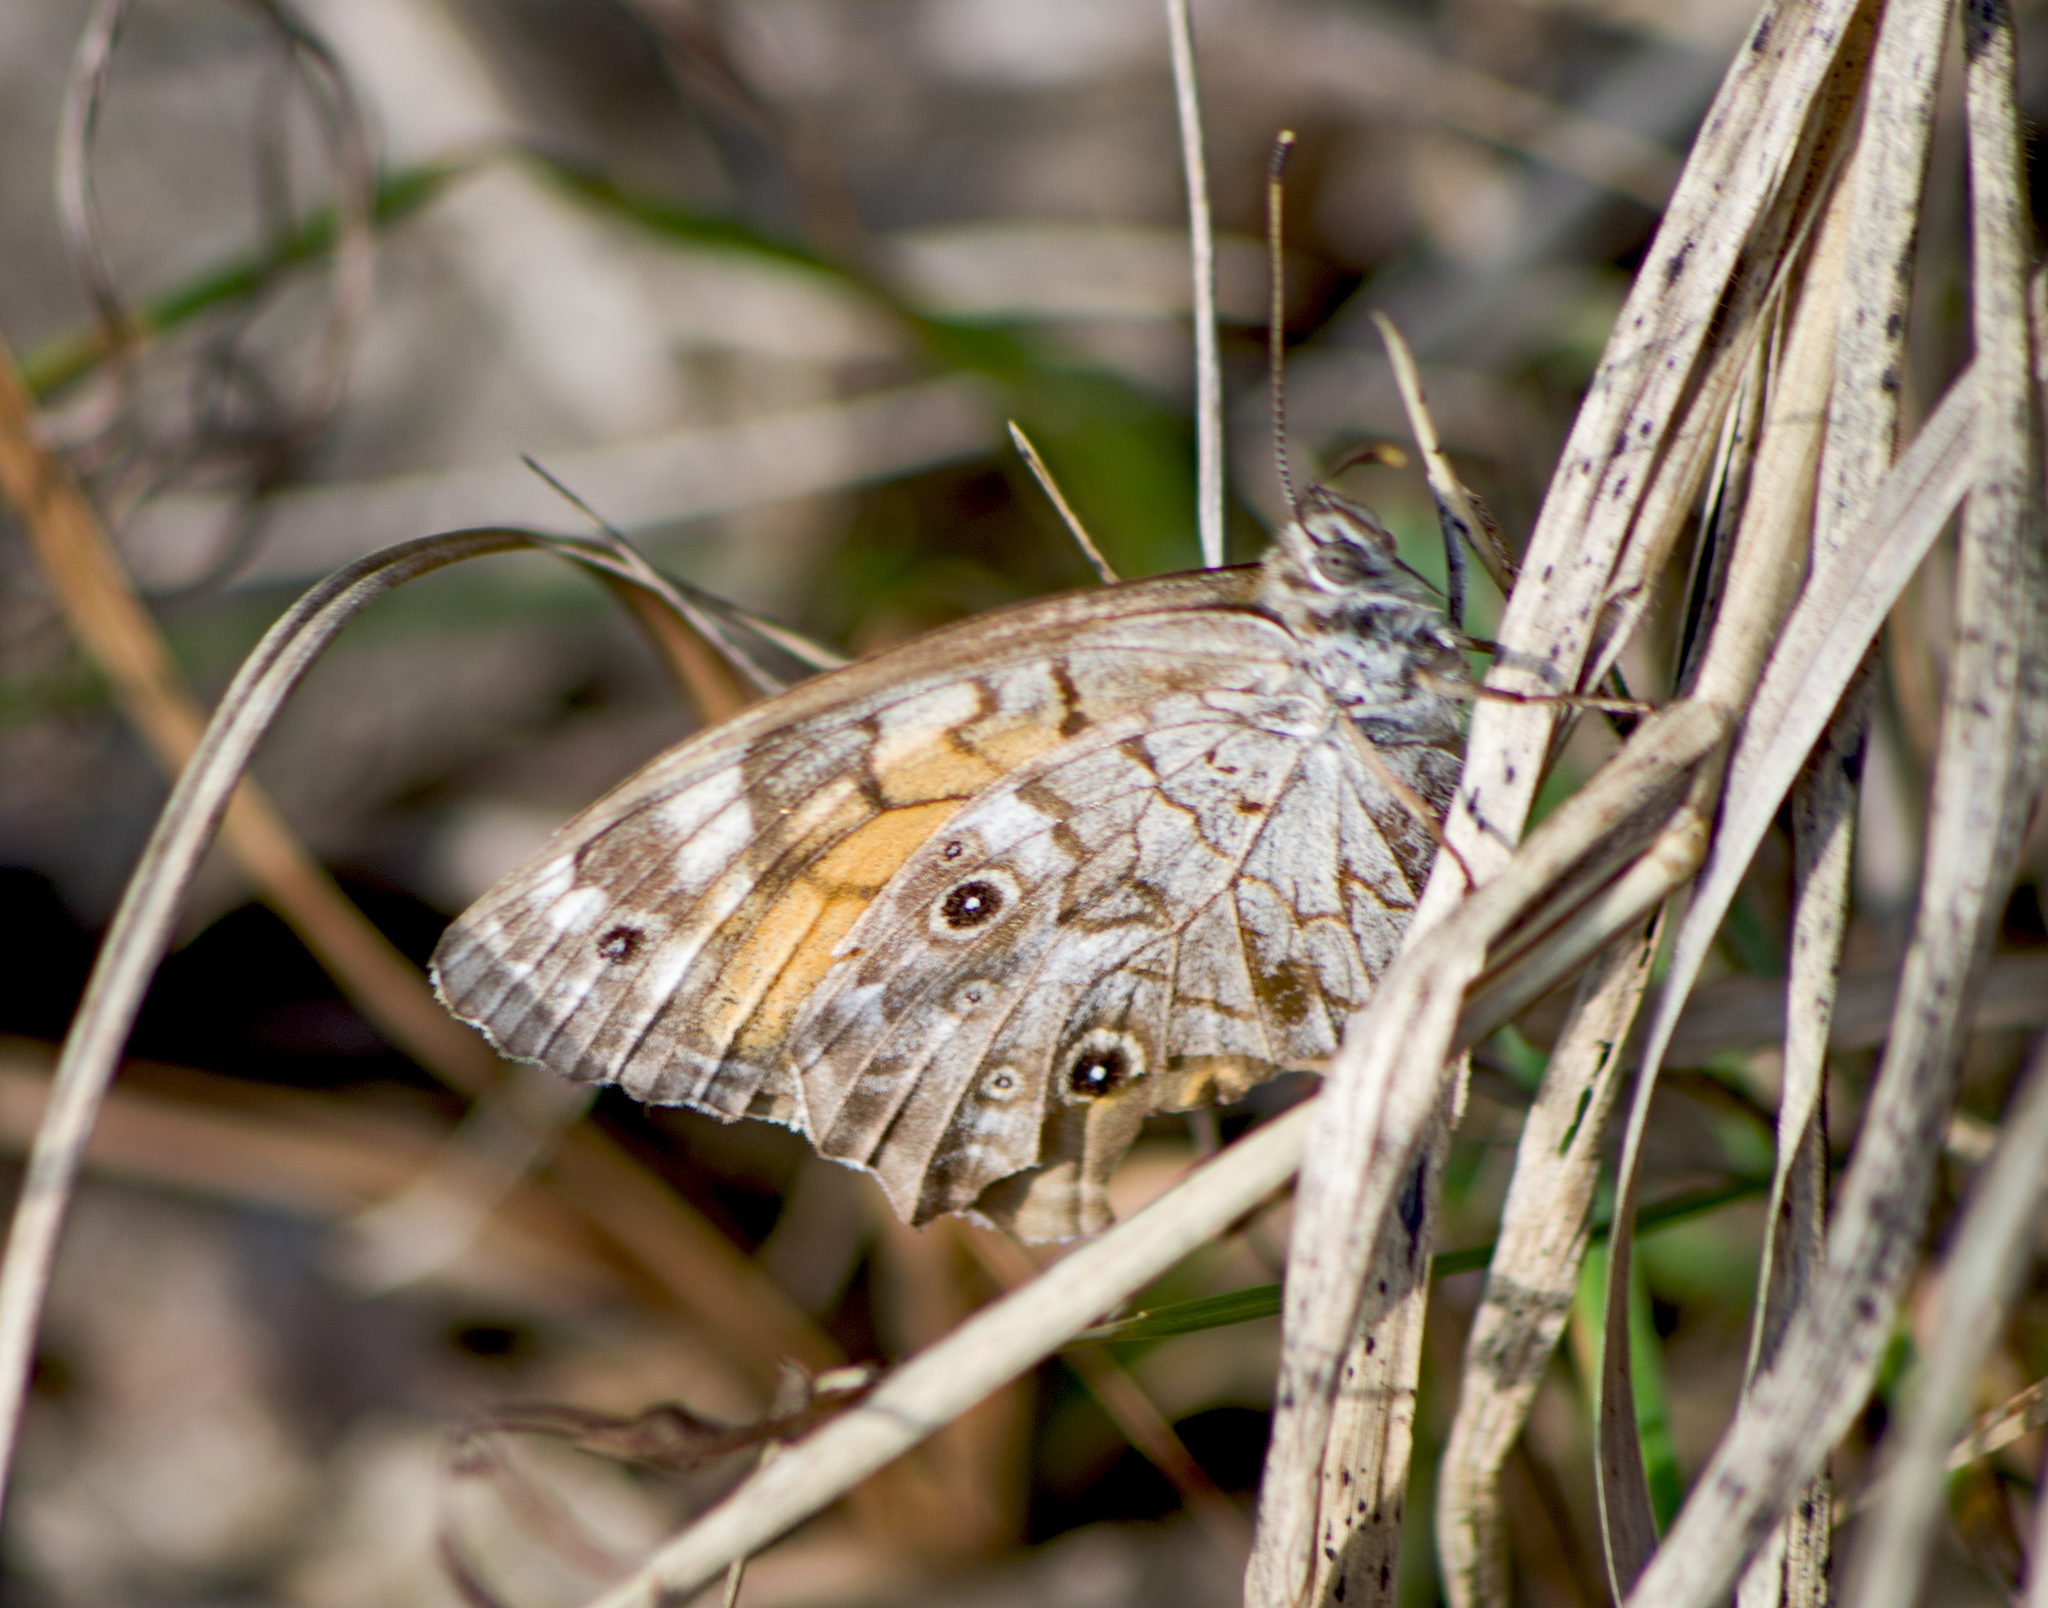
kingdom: Animalia
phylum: Arthropoda
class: Insecta
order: Lepidoptera
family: Nymphalidae
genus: Kirinia
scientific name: Kirinia roxelana
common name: Lattice brown
